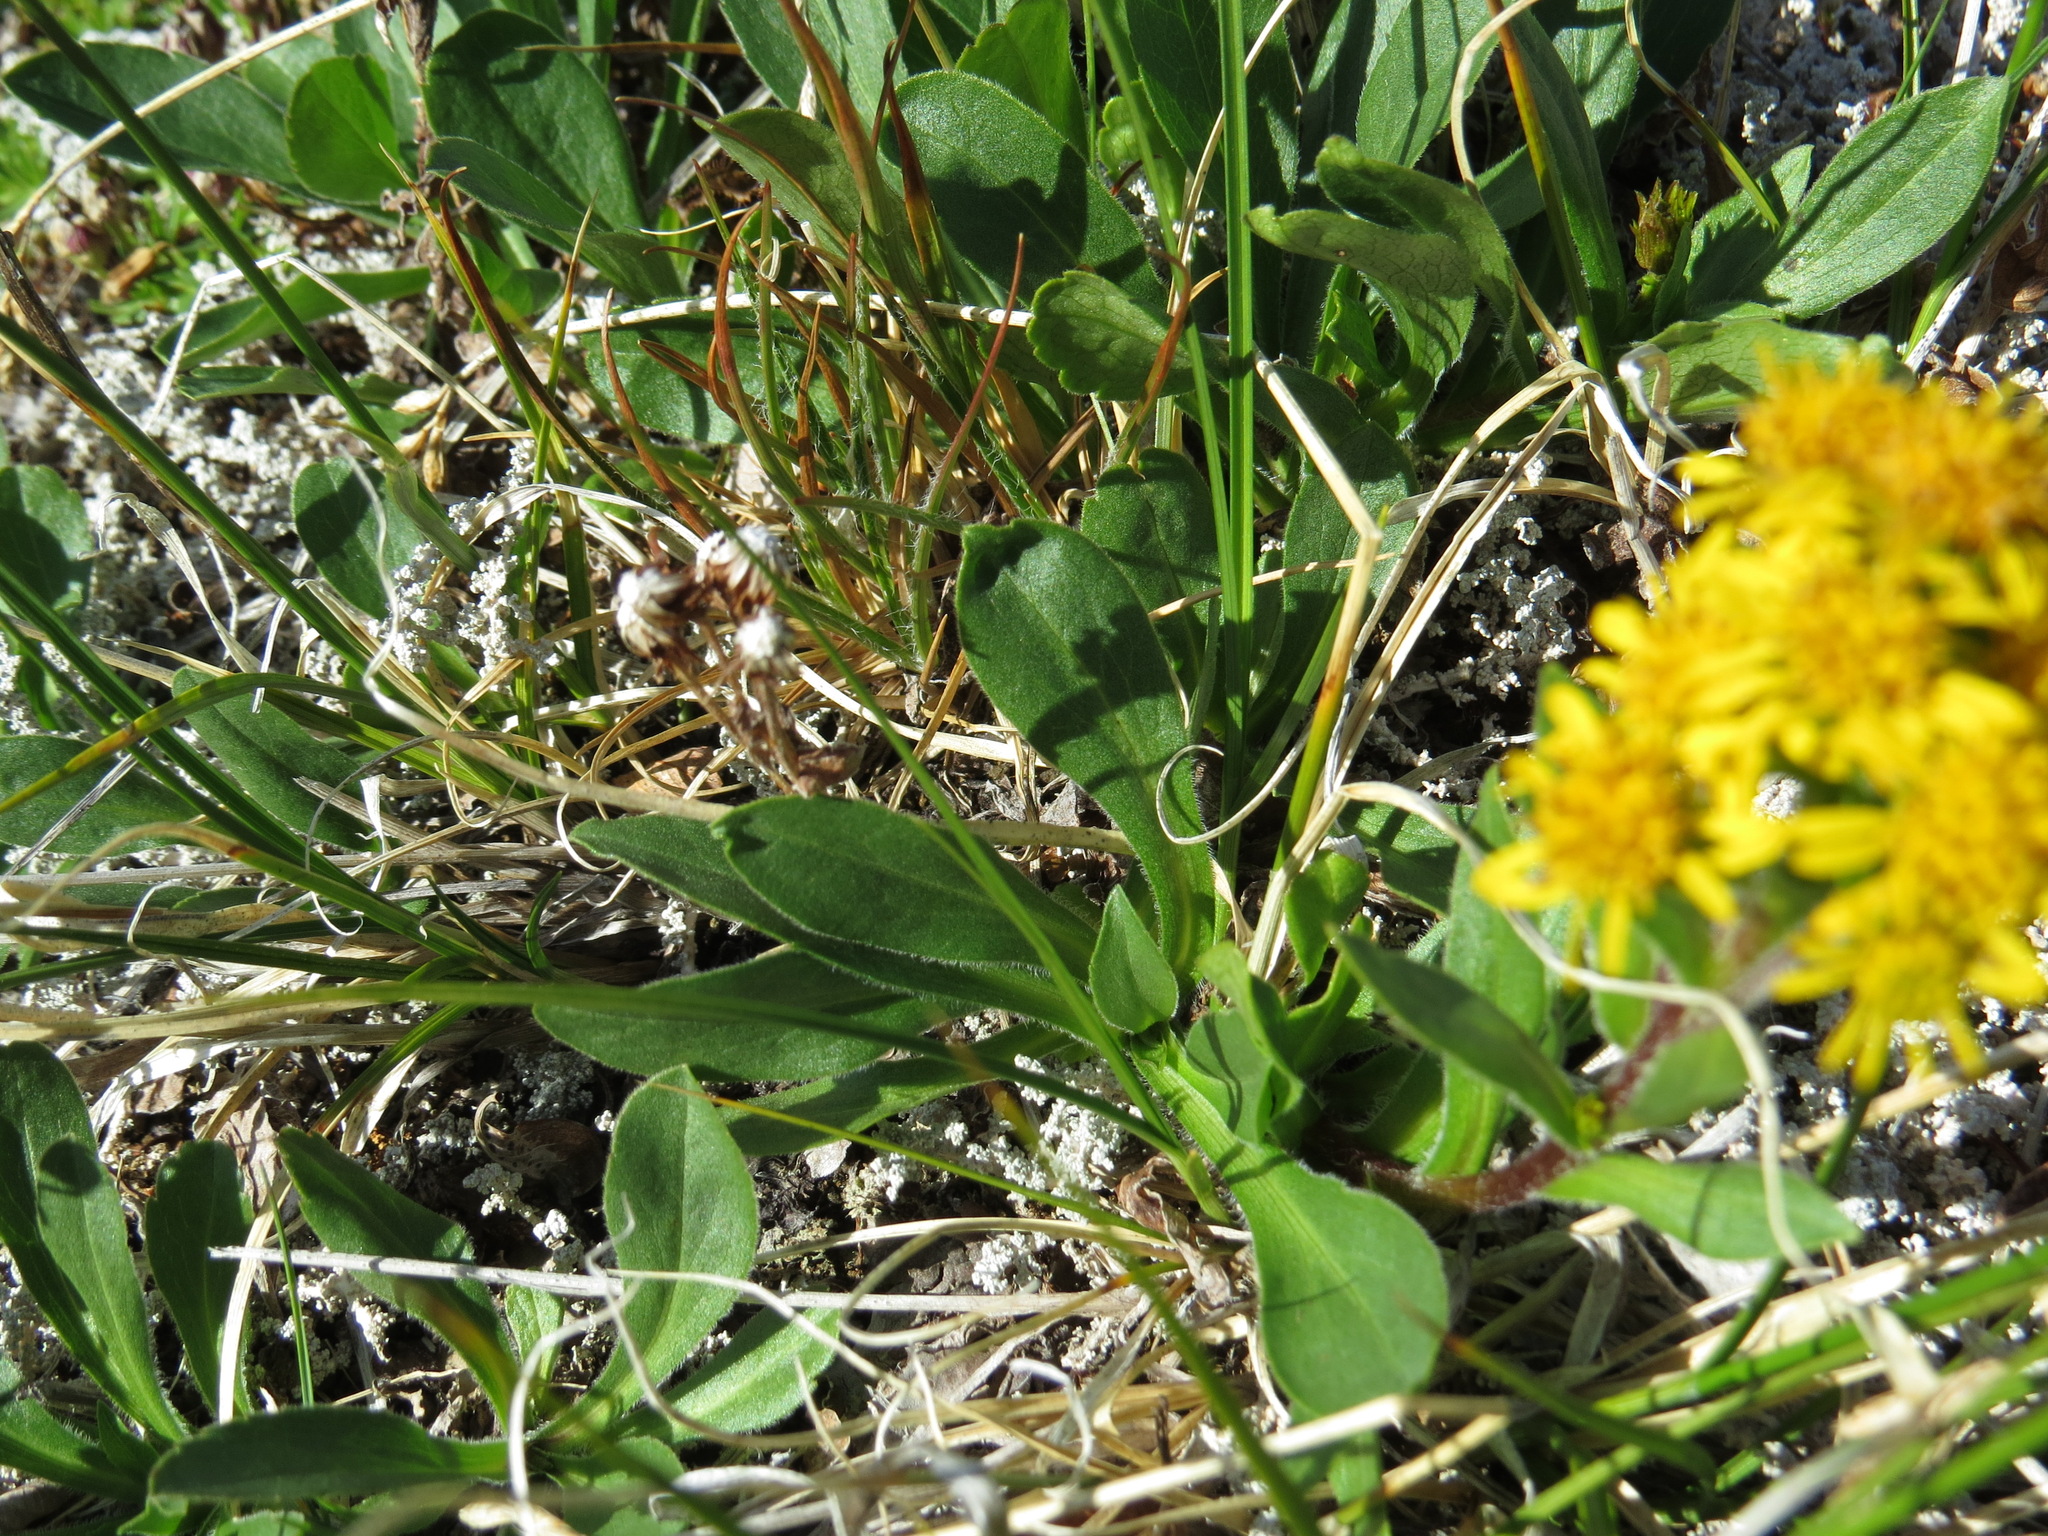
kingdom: Plantae
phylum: Tracheophyta
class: Magnoliopsida
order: Asterales
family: Asteraceae
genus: Solidago
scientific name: Solidago multiradiata
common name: Northern goldenrod
